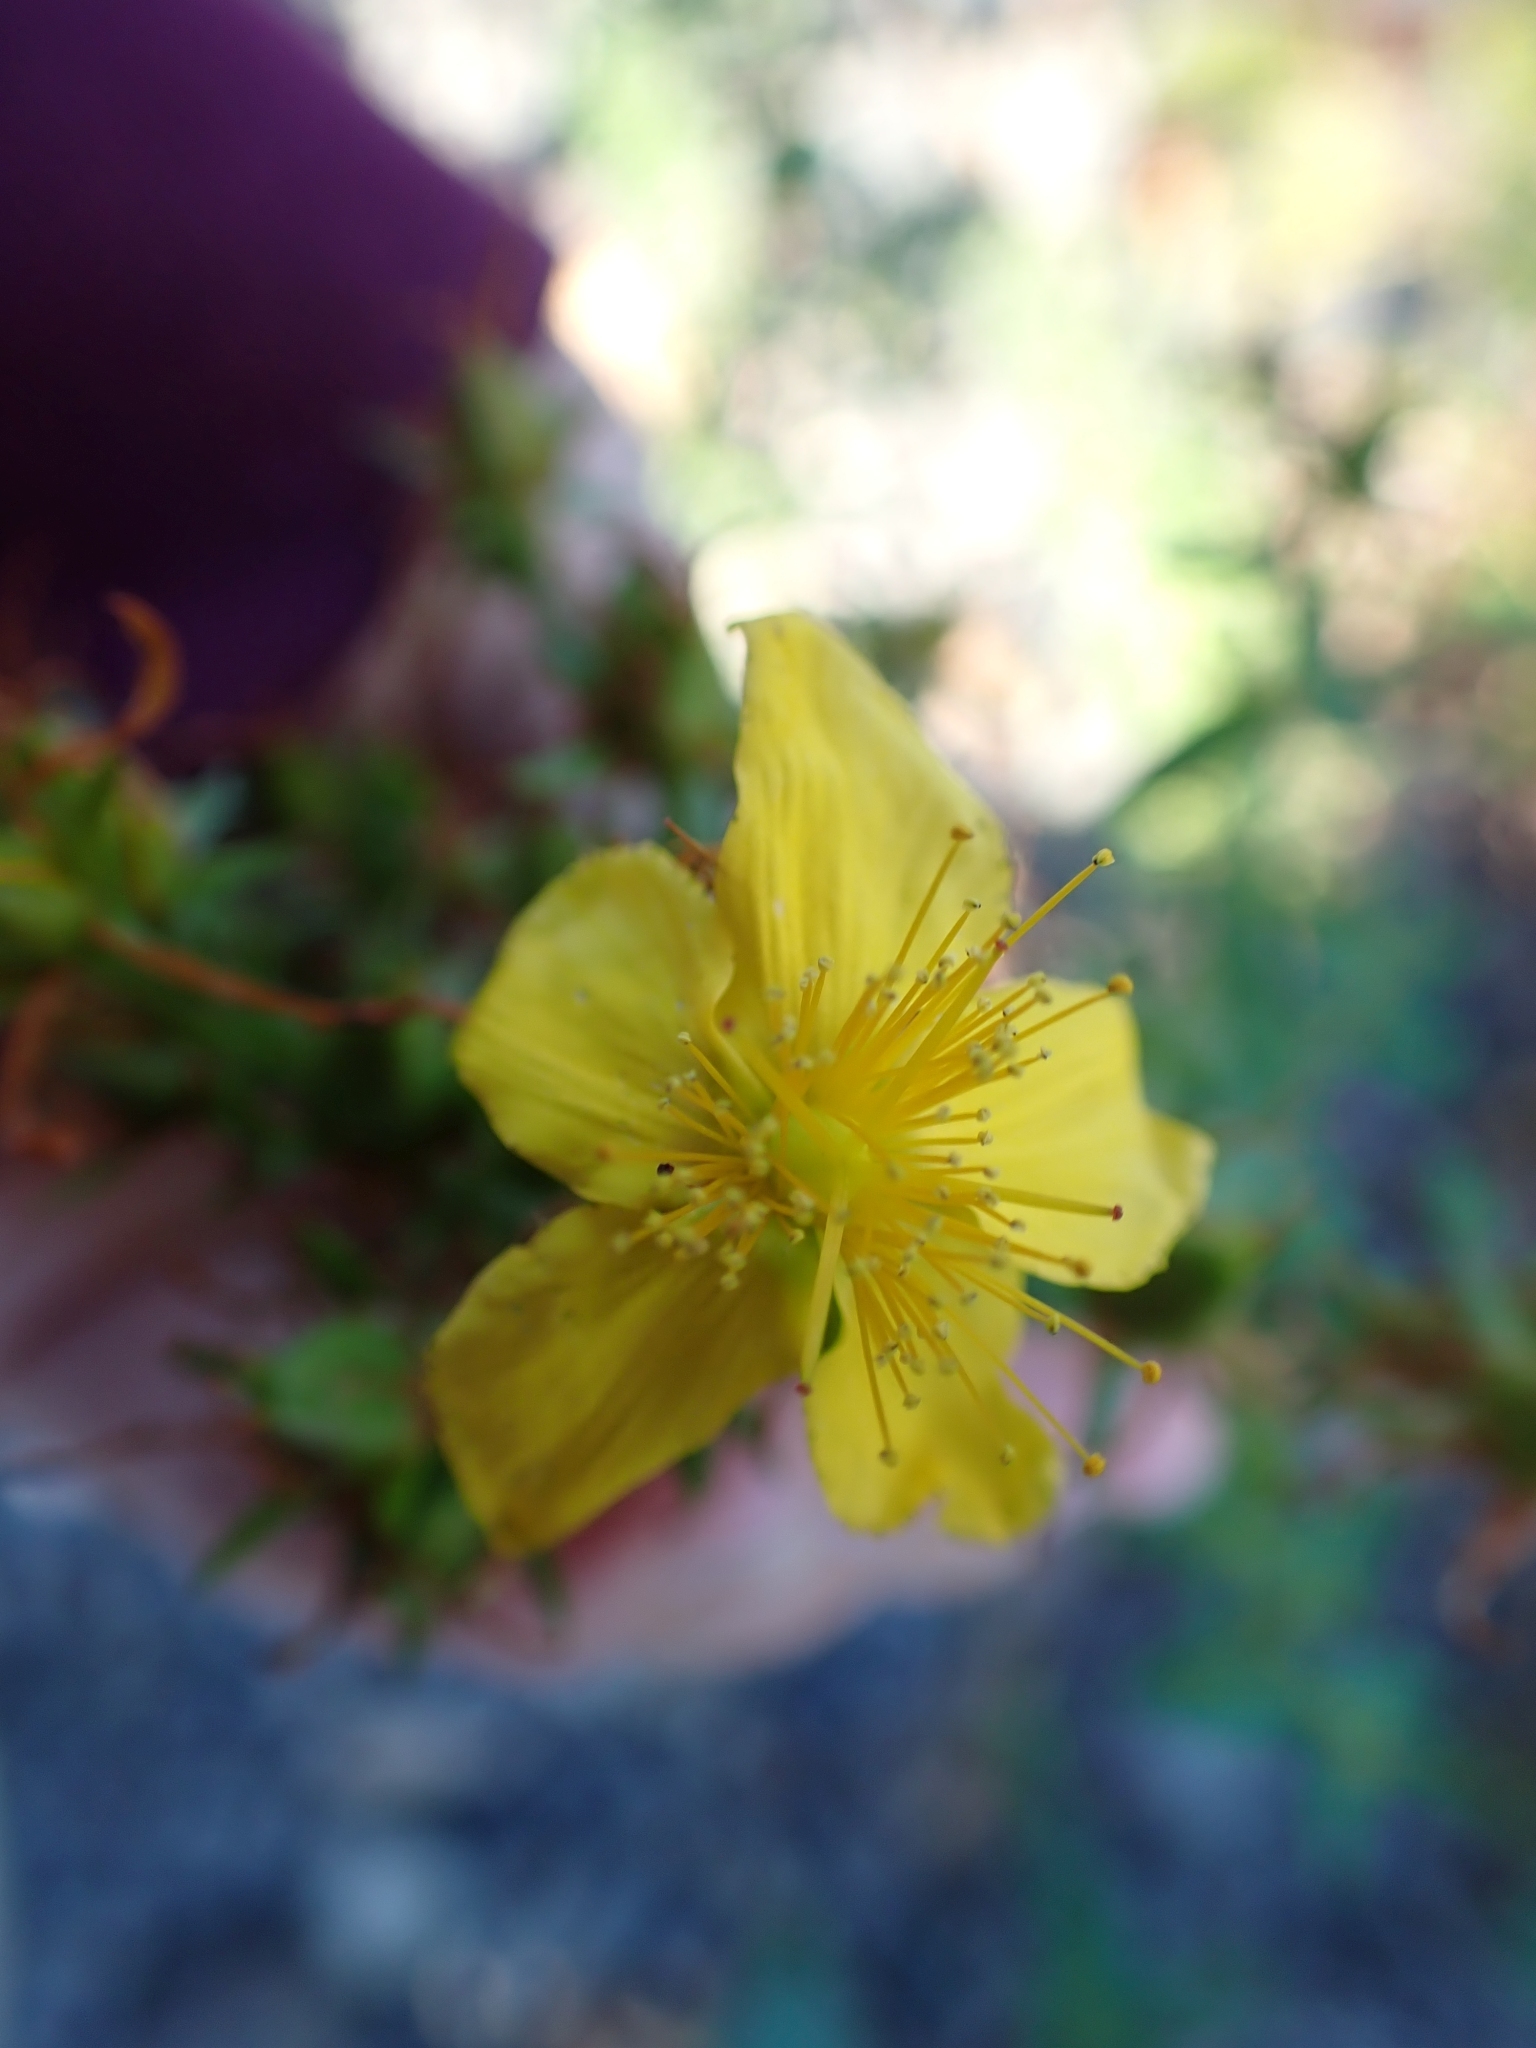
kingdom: Plantae
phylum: Tracheophyta
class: Magnoliopsida
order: Malpighiales
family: Hypericaceae
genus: Hypericum
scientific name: Hypericum perforatum
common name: Common st. johnswort
